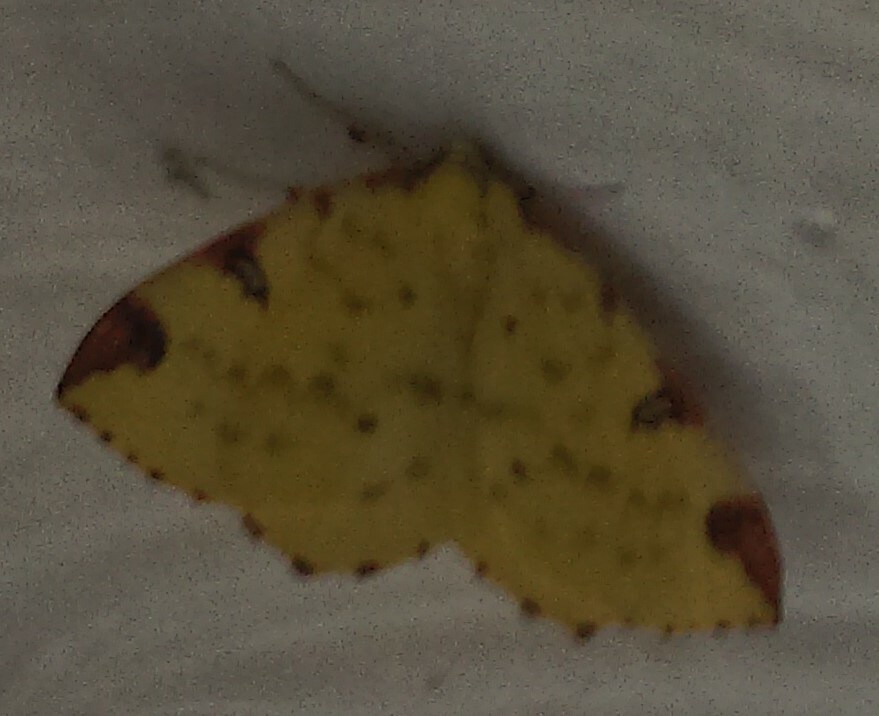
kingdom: Animalia
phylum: Arthropoda
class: Insecta
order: Lepidoptera
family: Geometridae
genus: Opisthograptis
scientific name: Opisthograptis luteolata
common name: Brimstone moth
